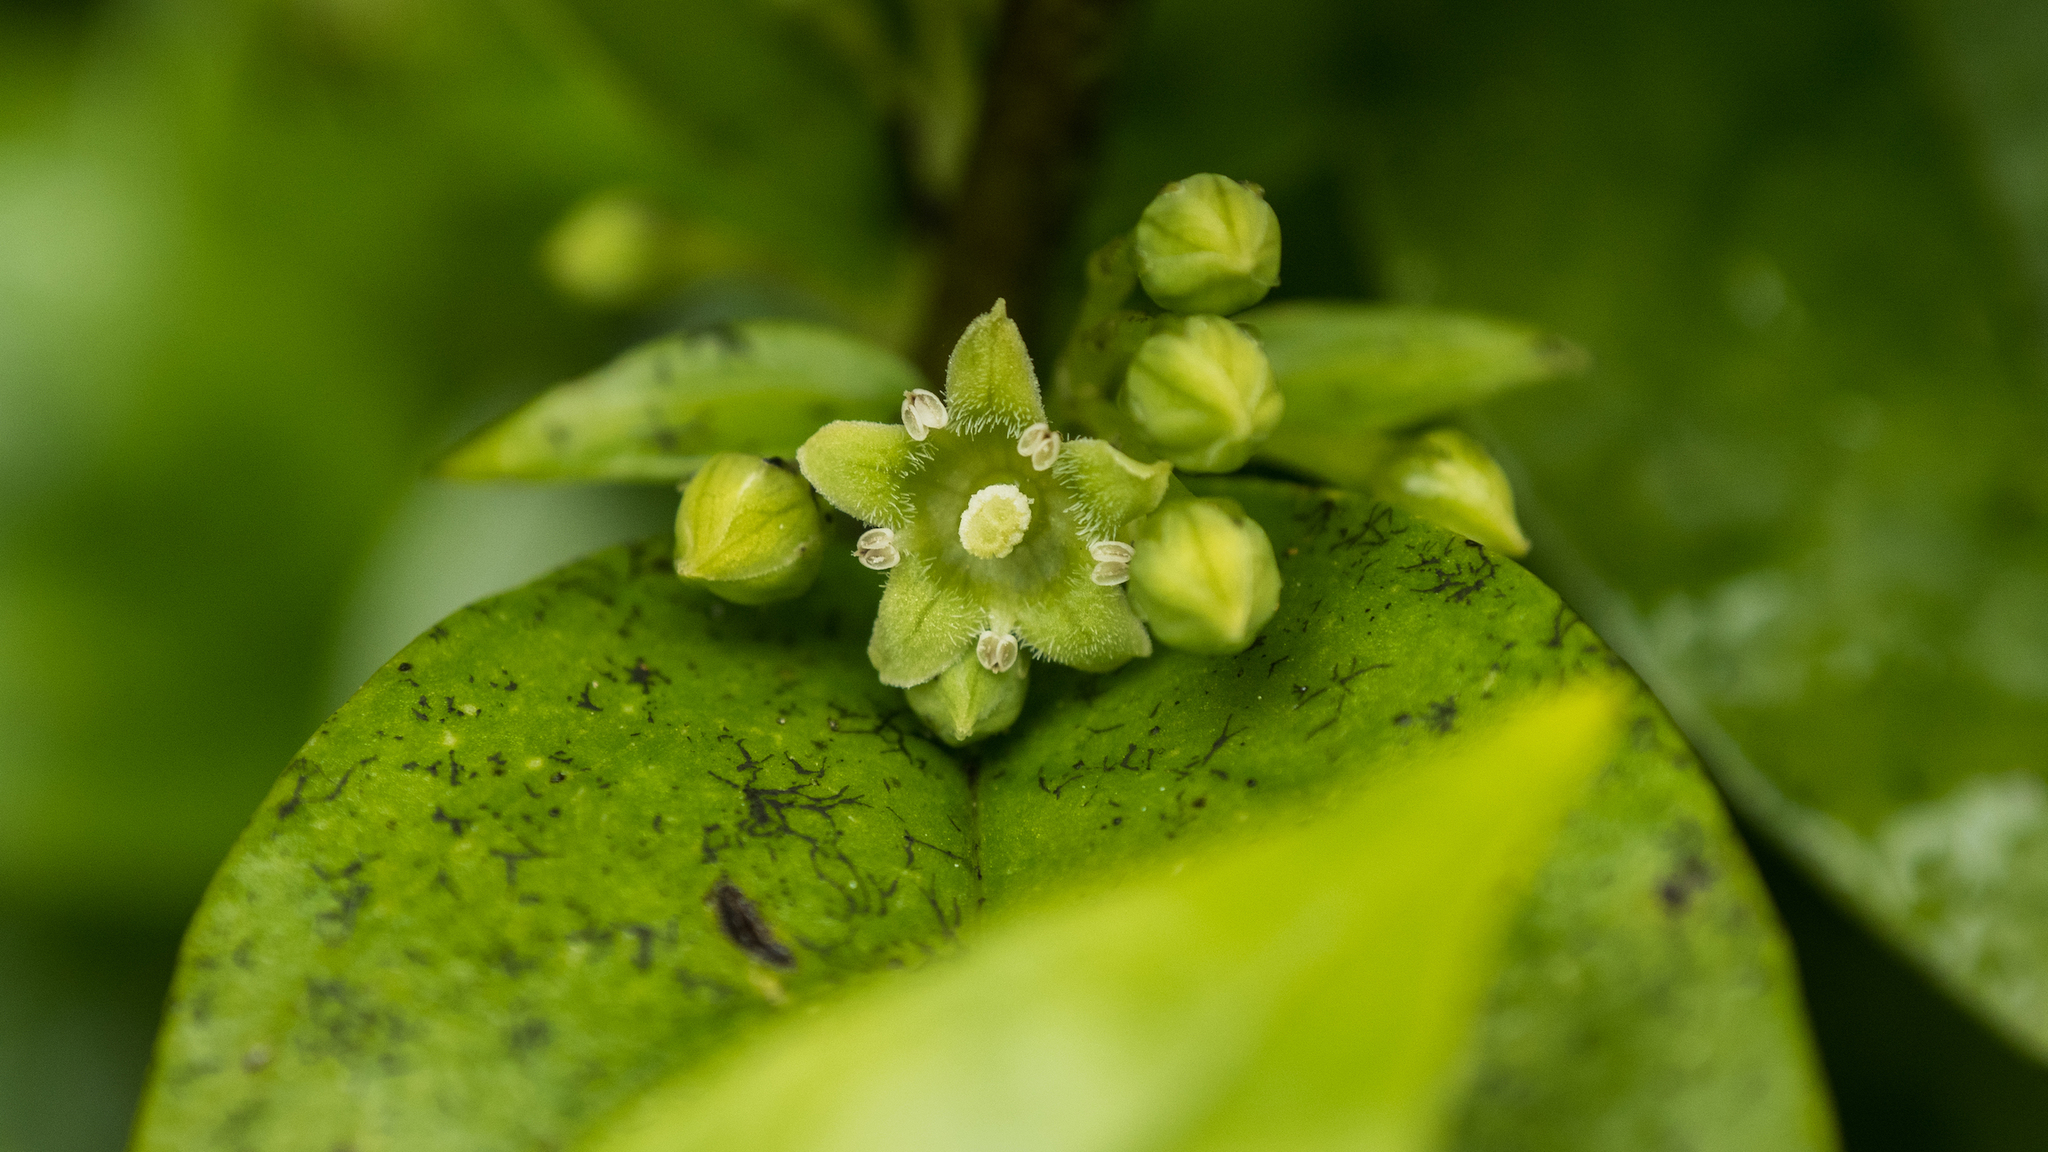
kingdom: Plantae
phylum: Tracheophyta
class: Magnoliopsida
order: Gentianales
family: Loganiaceae
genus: Geniostoma
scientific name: Geniostoma ligustrifolium
